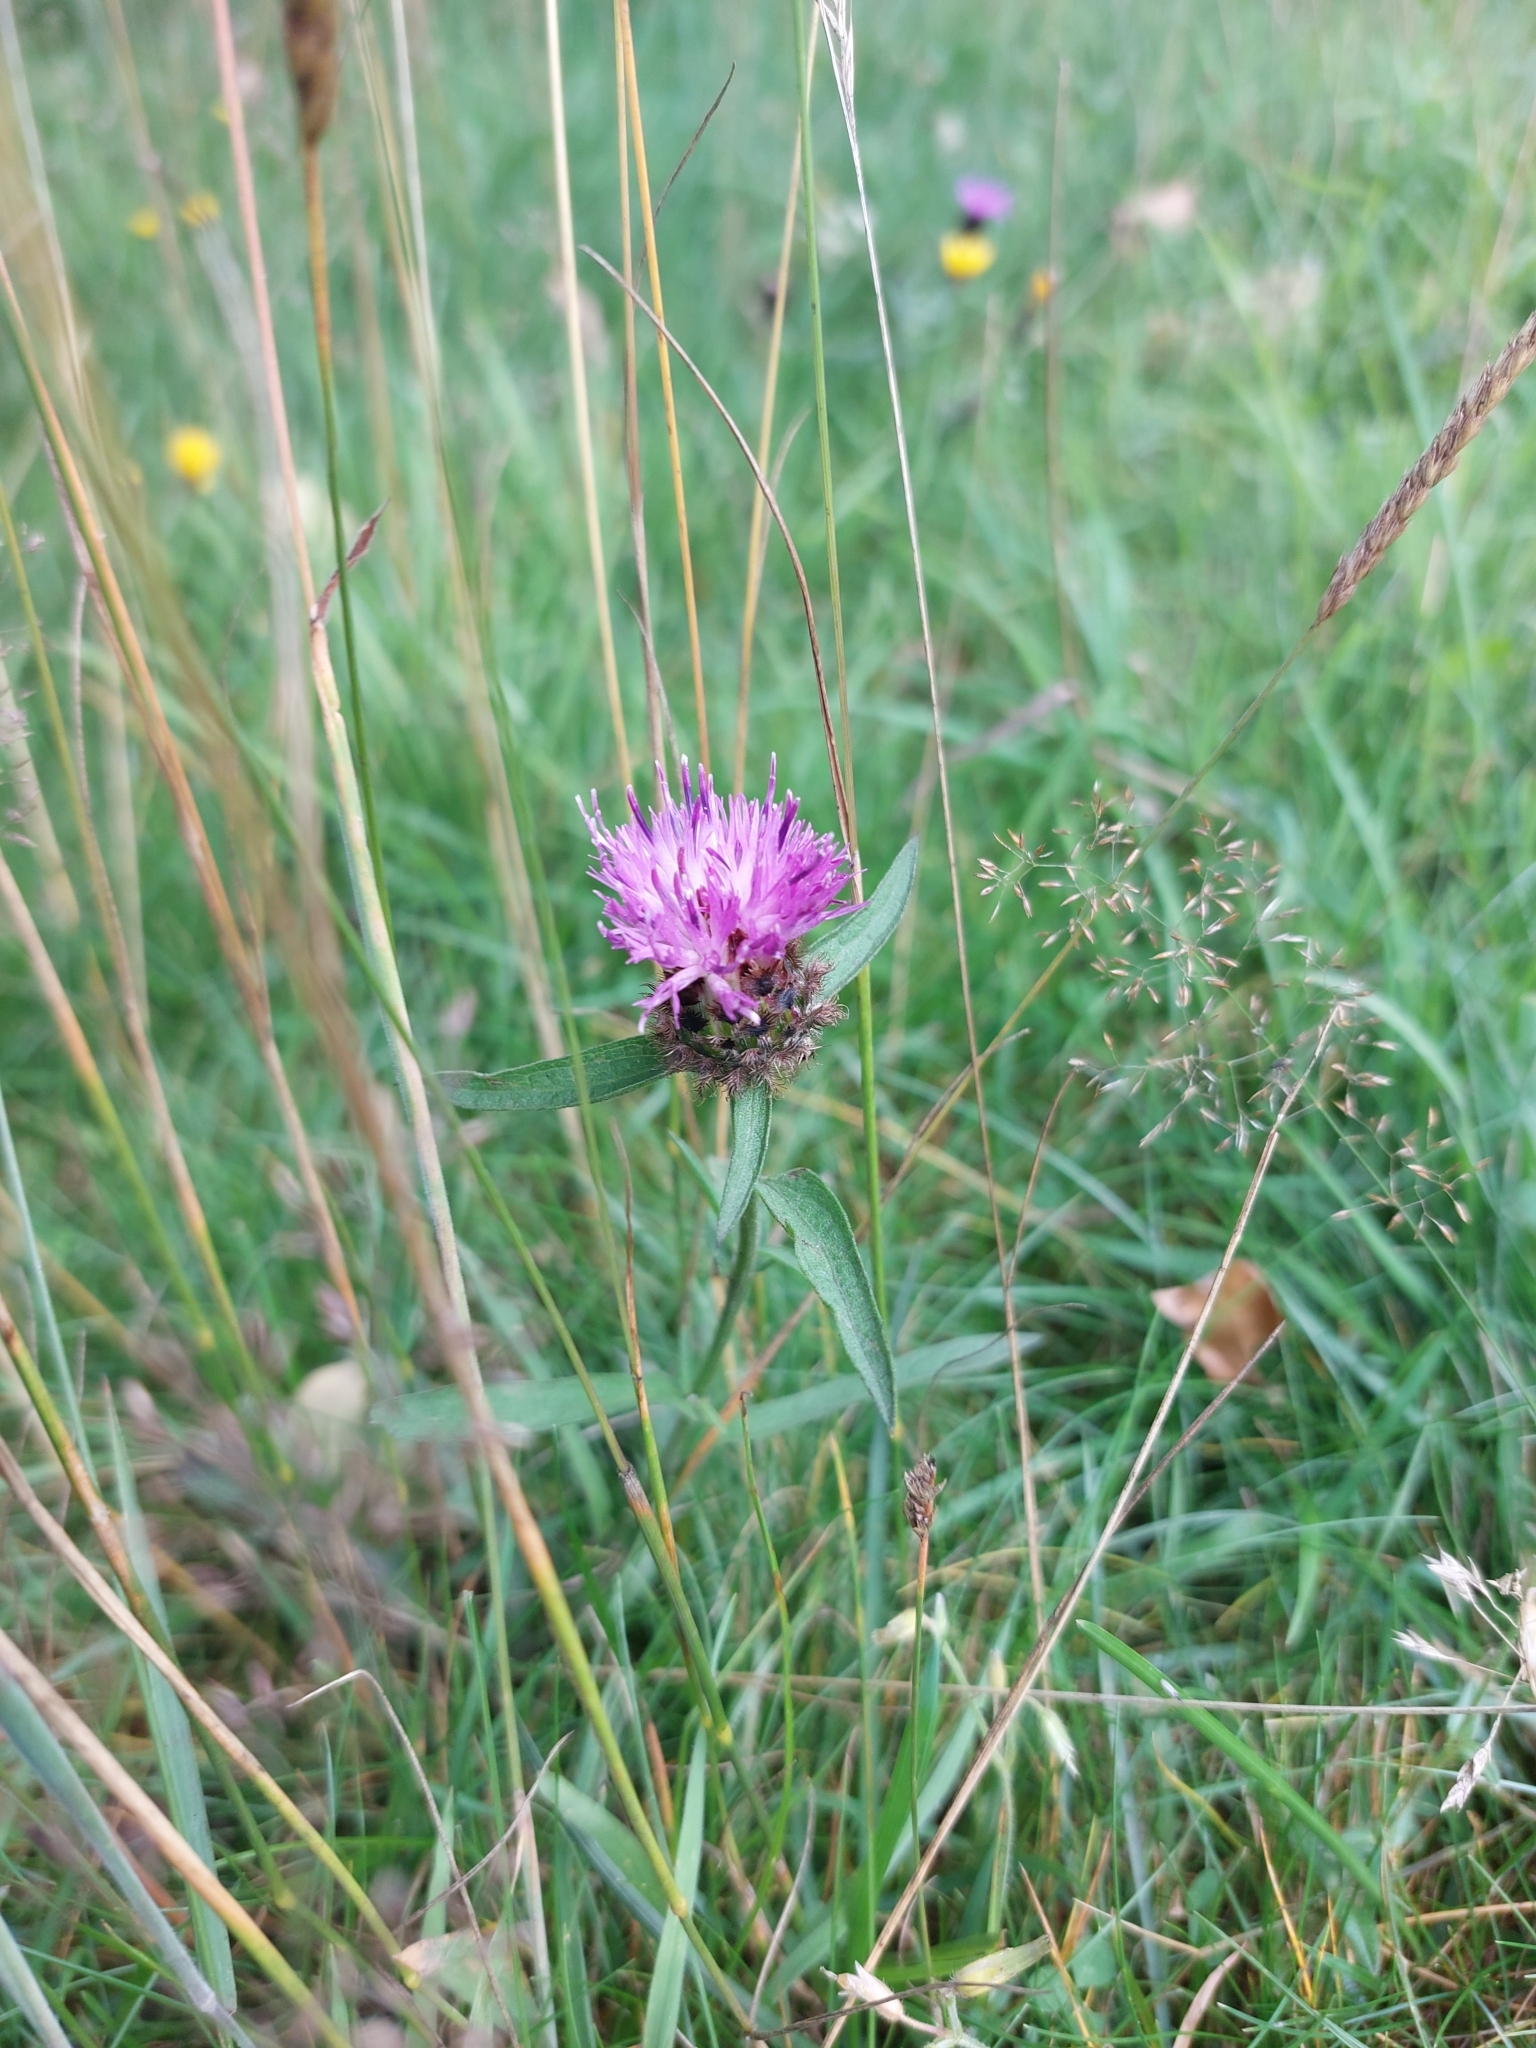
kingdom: Plantae
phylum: Tracheophyta
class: Magnoliopsida
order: Asterales
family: Asteraceae
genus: Centaurea
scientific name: Centaurea nigra
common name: Lesser knapweed
